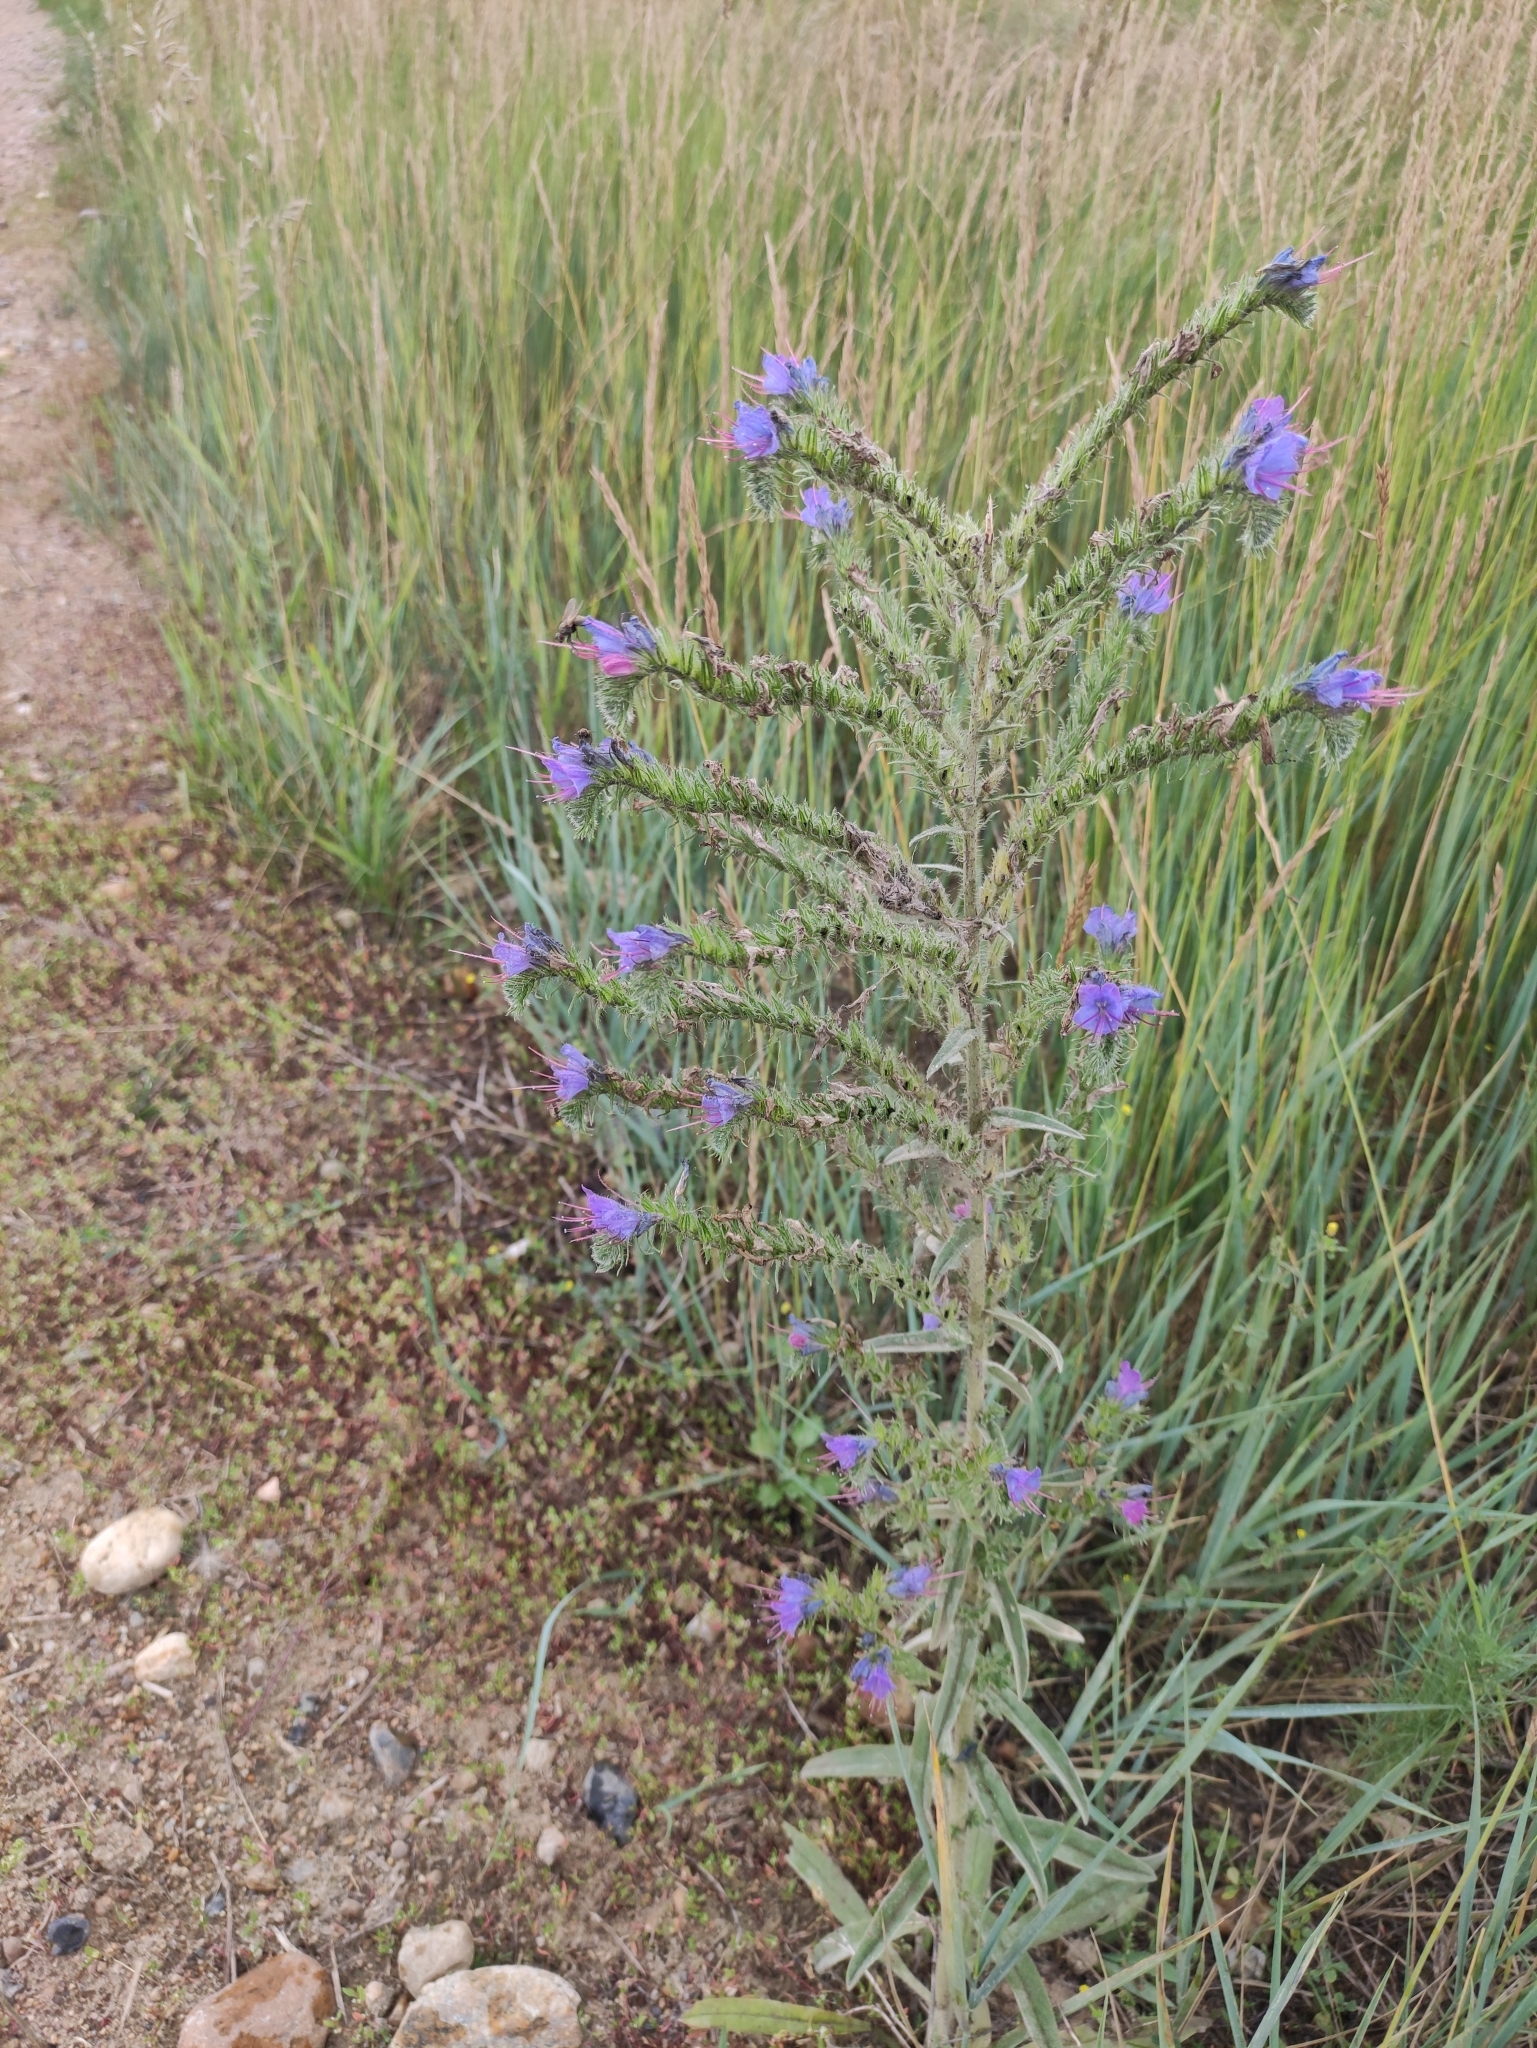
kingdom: Plantae
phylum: Tracheophyta
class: Magnoliopsida
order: Boraginales
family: Boraginaceae
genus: Echium
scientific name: Echium vulgare
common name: Common viper's bugloss
